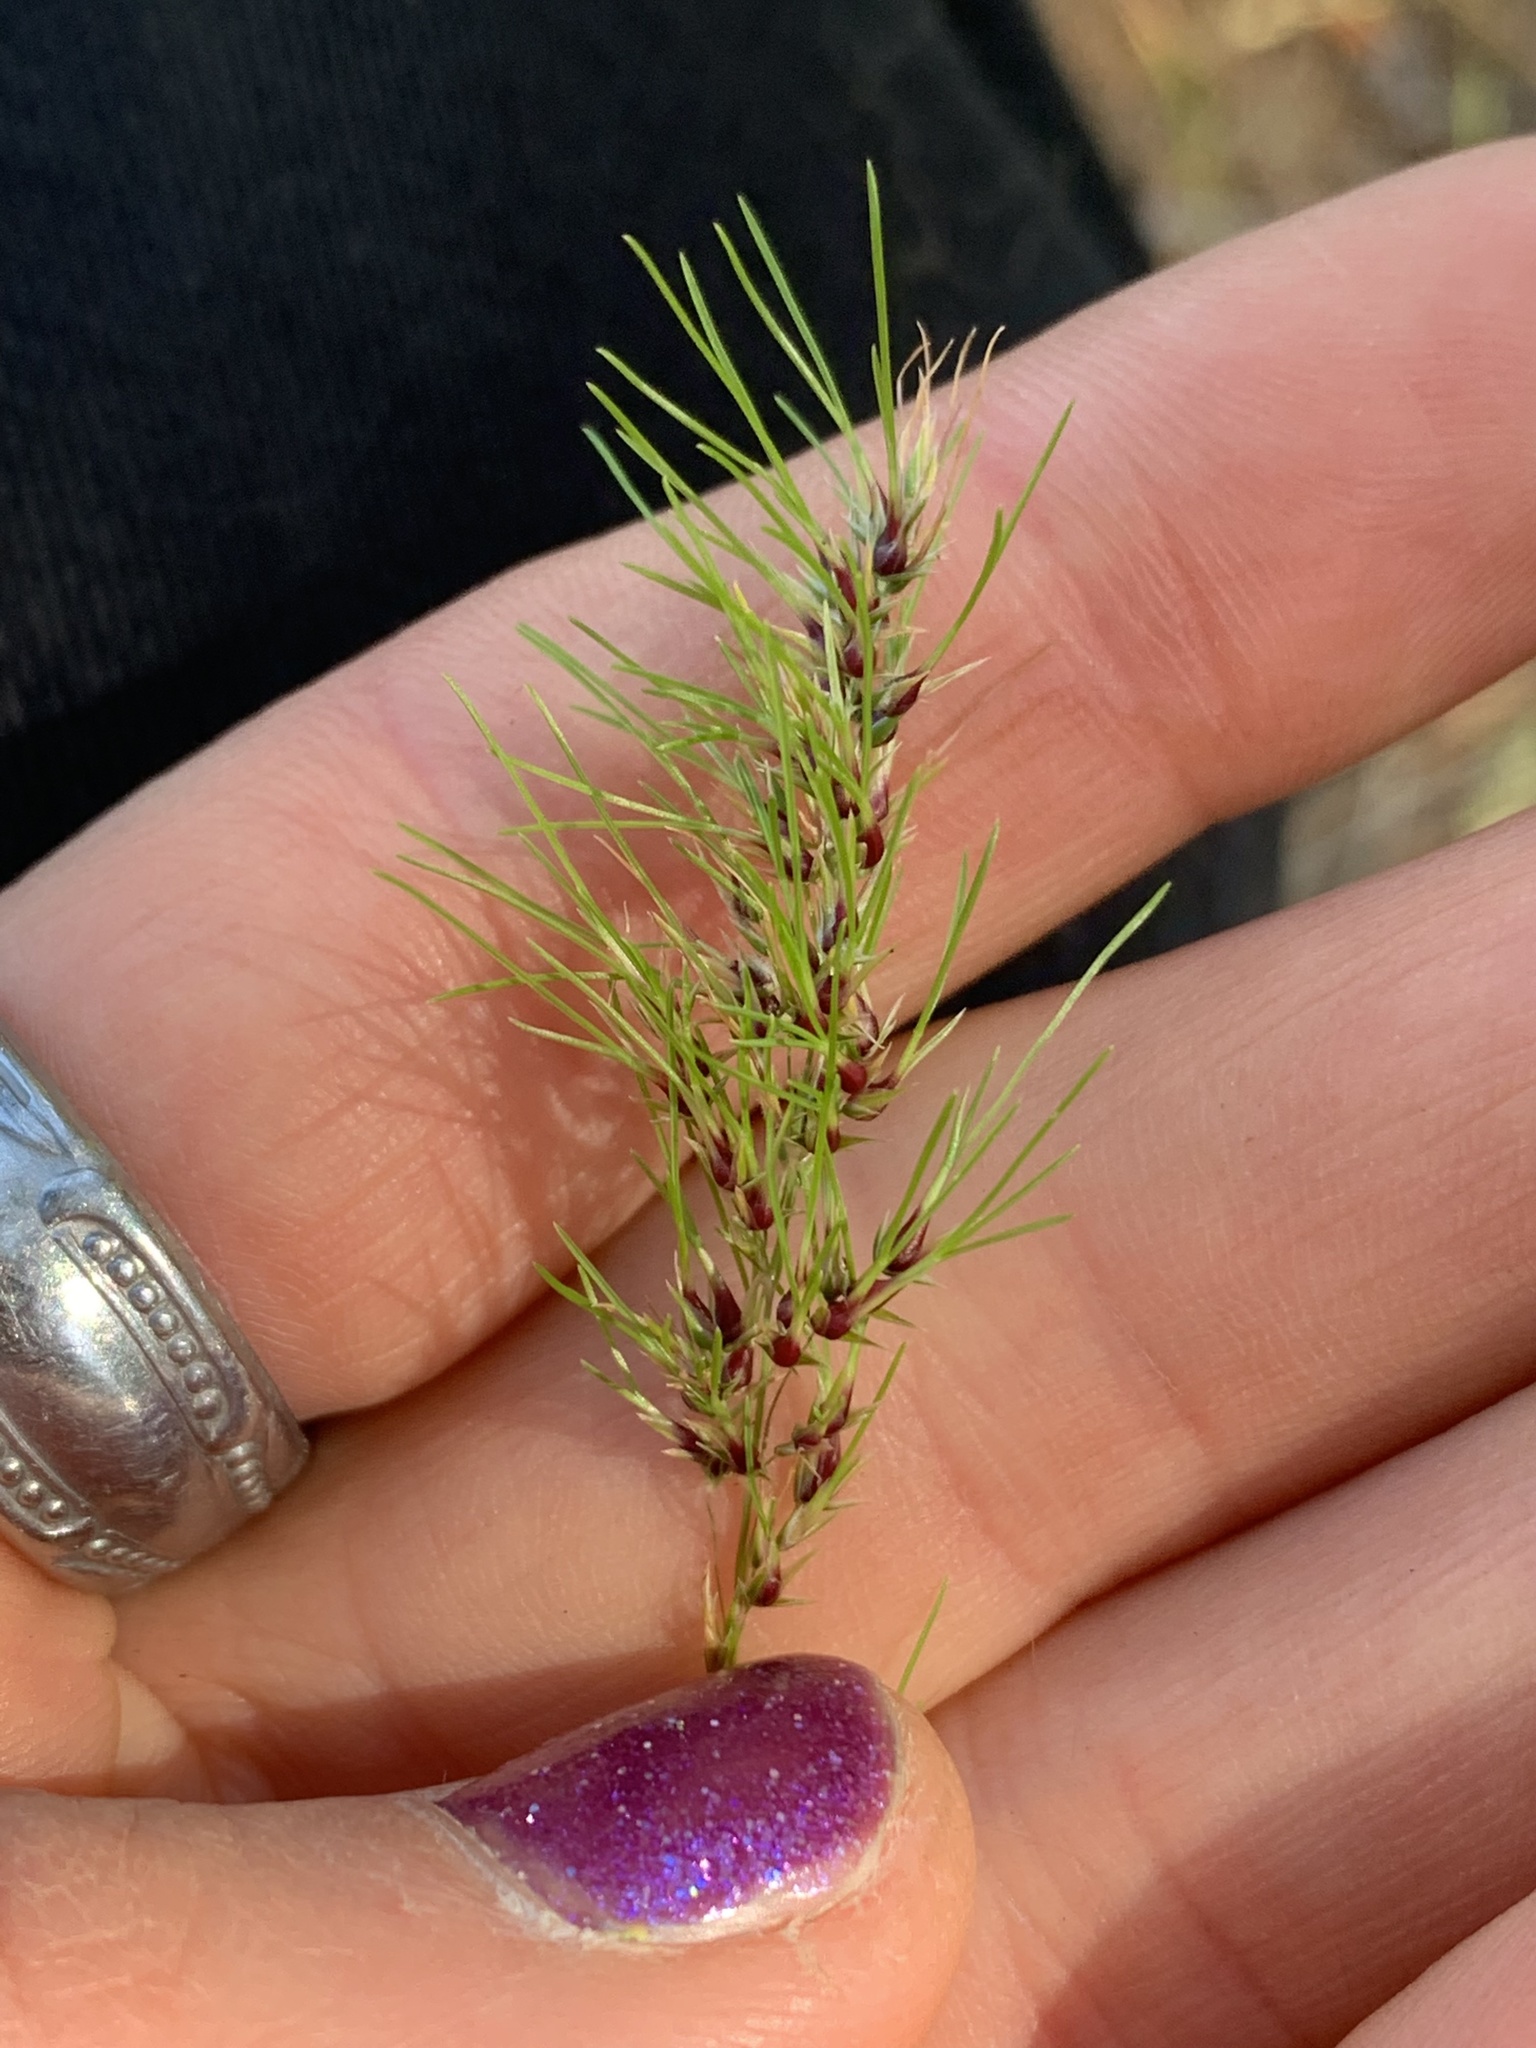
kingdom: Plantae
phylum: Tracheophyta
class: Liliopsida
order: Poales
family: Poaceae
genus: Poa
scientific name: Poa bulbosa
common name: Bulbous bluegrass
